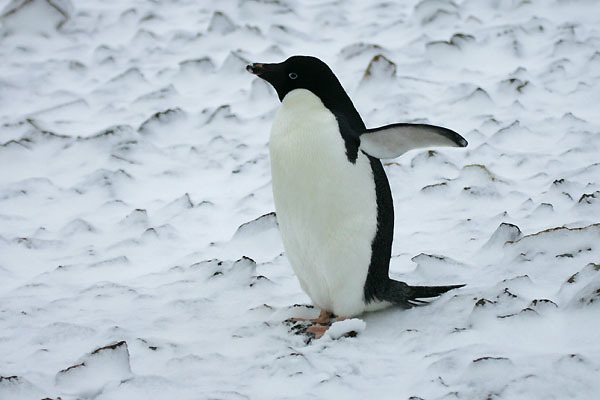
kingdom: Animalia
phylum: Chordata
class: Aves
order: Sphenisciformes
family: Spheniscidae
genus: Pygoscelis
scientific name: Pygoscelis adeliae
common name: Adelie penguin
